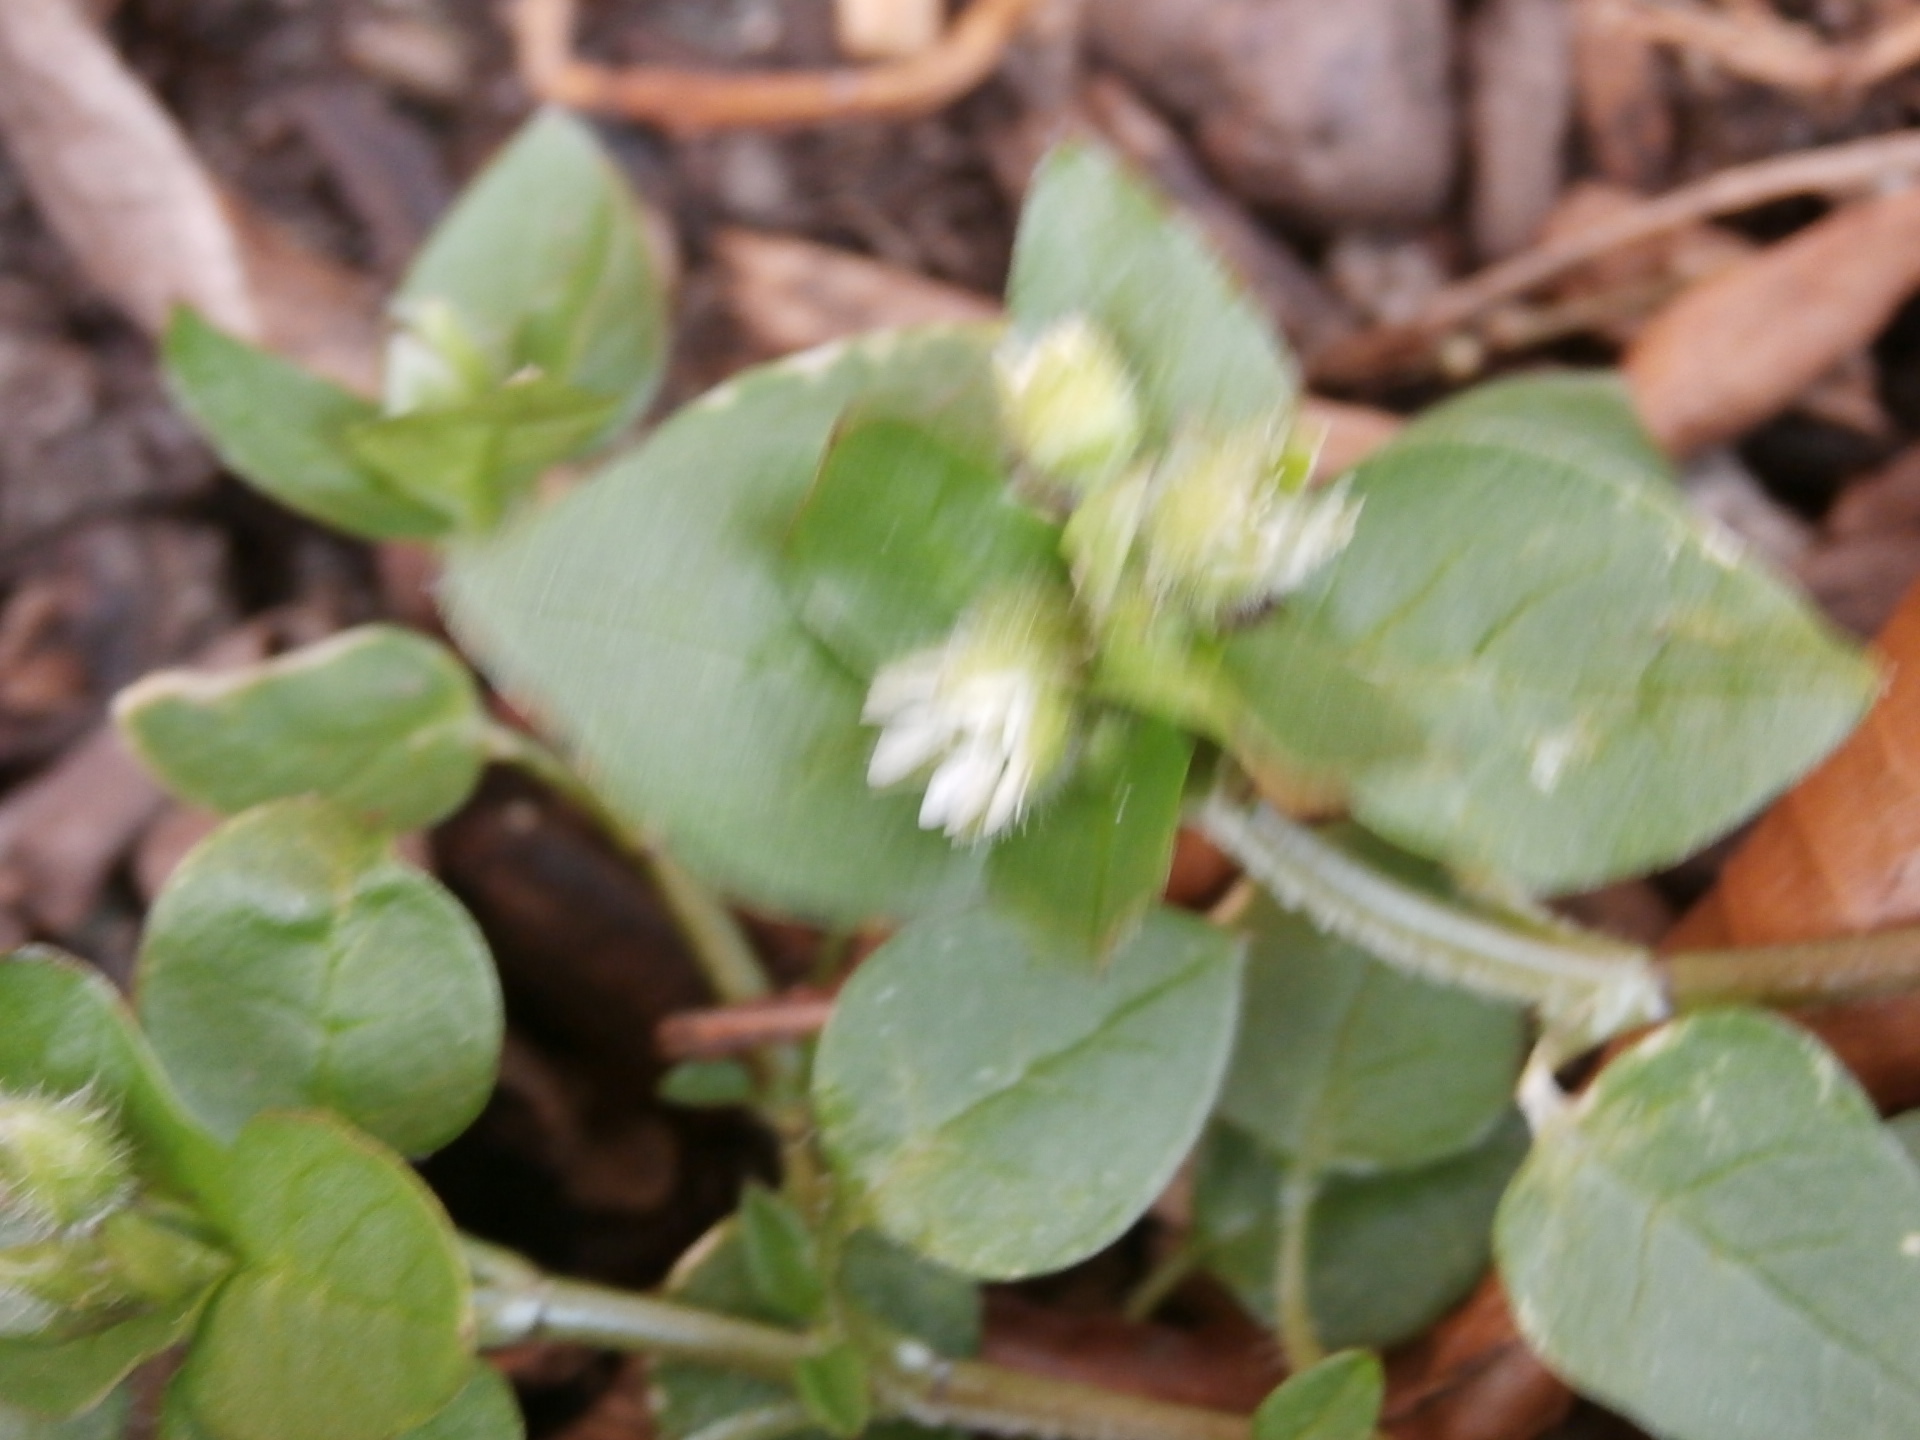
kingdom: Plantae
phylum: Tracheophyta
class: Magnoliopsida
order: Caryophyllales
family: Caryophyllaceae
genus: Stellaria
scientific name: Stellaria media
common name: Common chickweed
